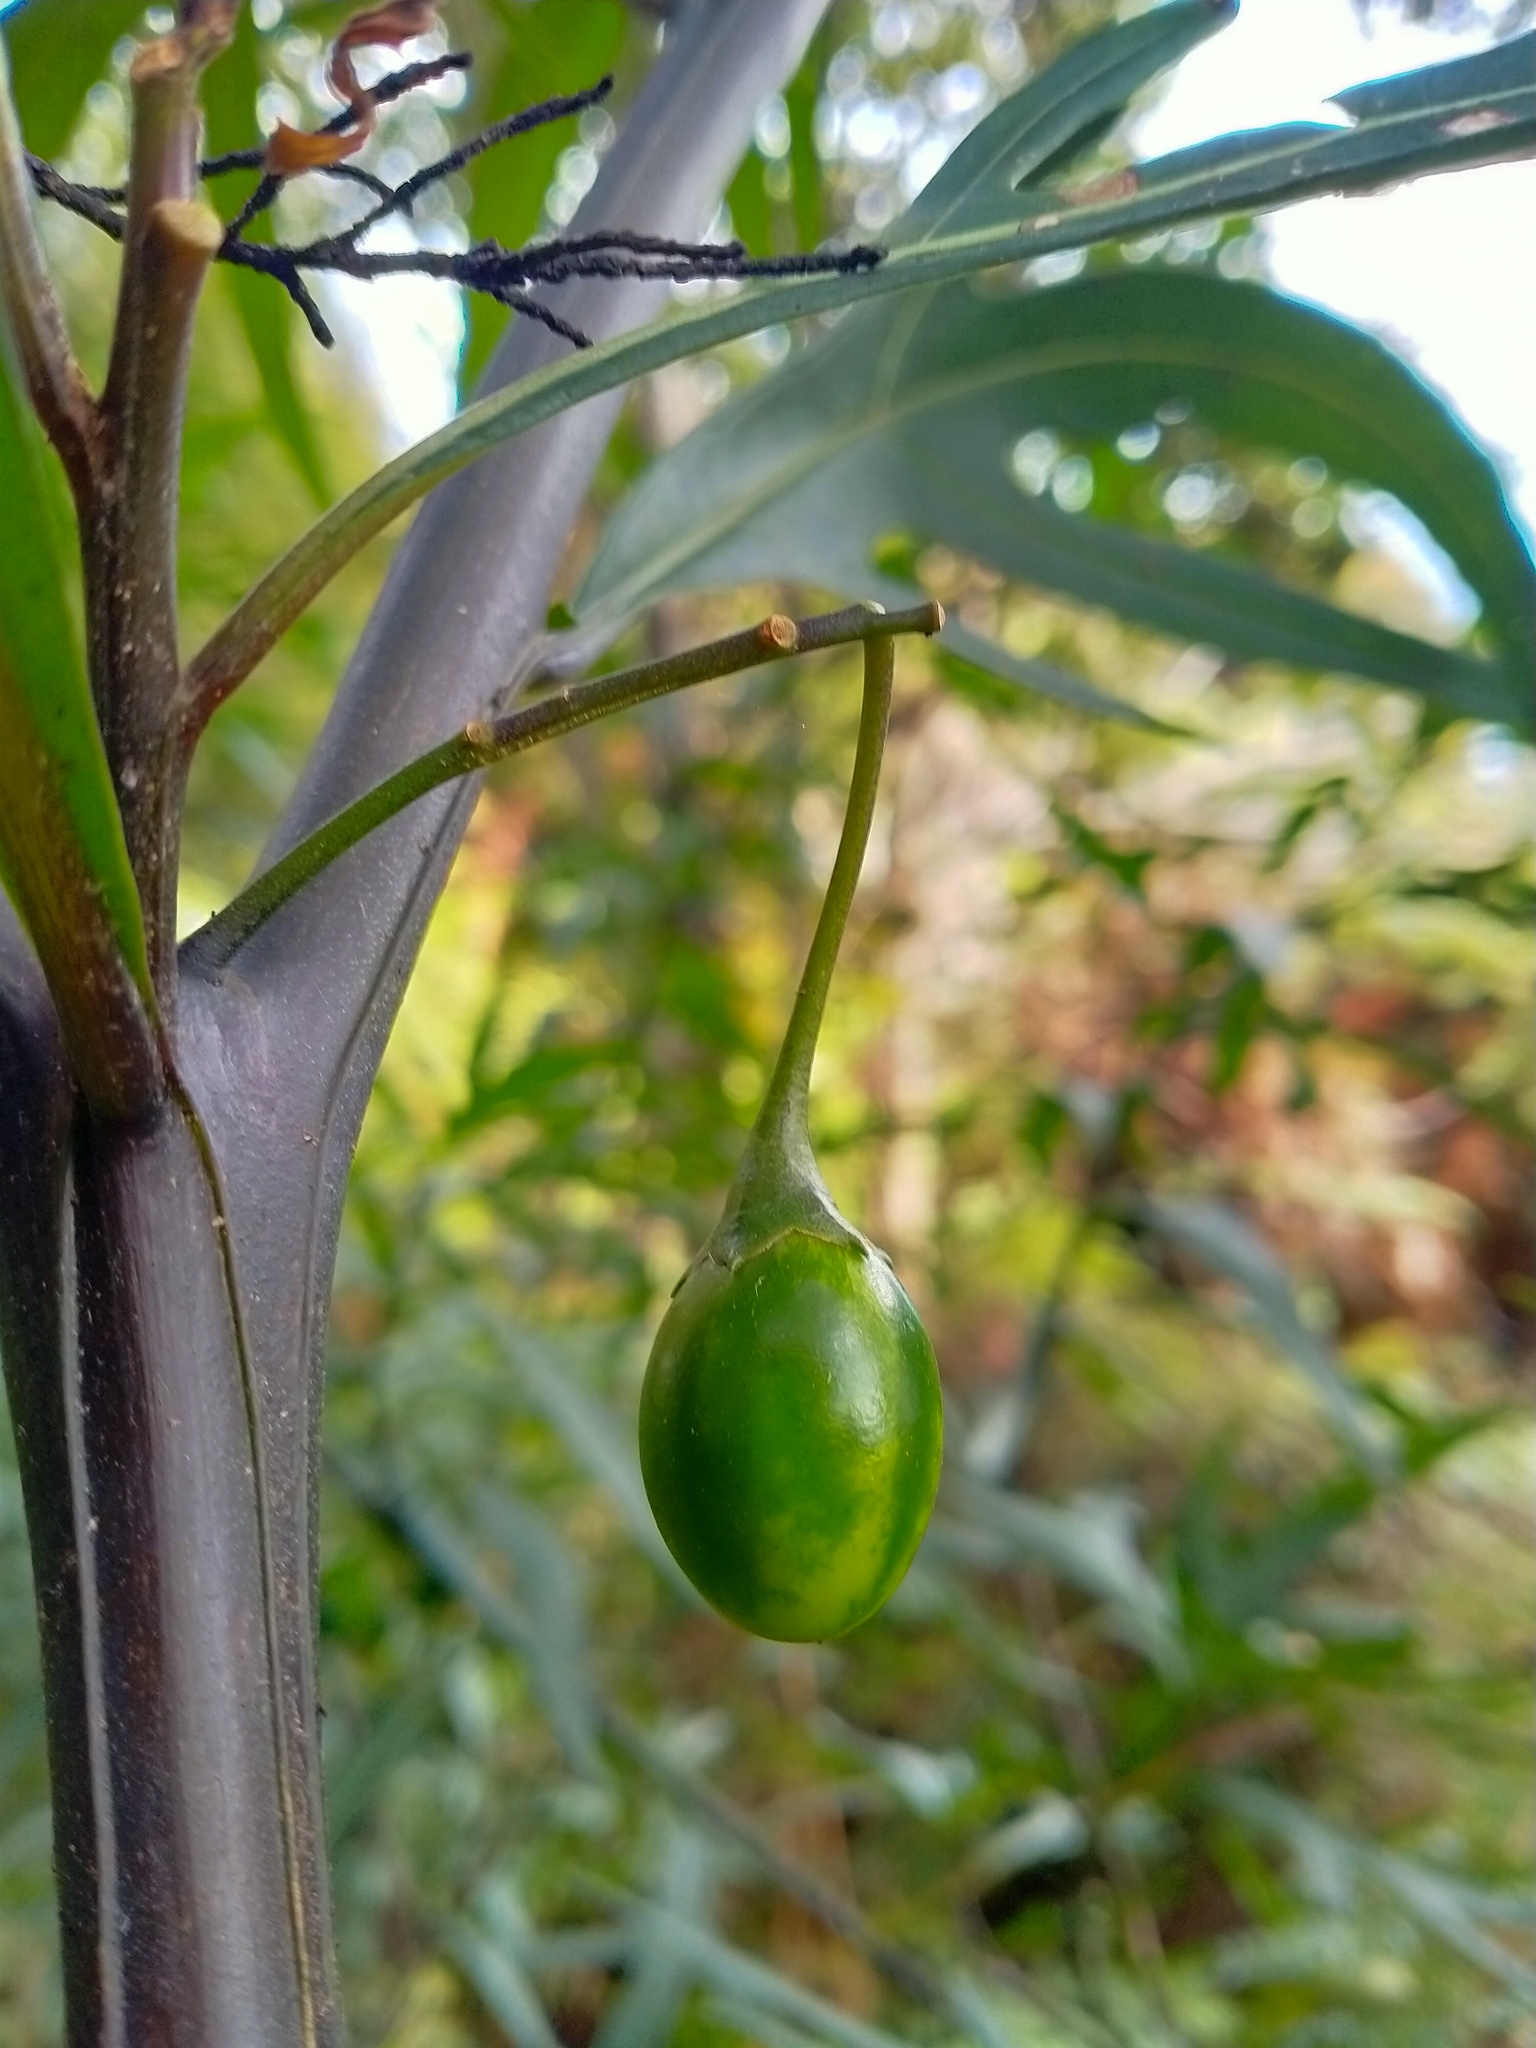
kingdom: Plantae
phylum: Tracheophyta
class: Magnoliopsida
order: Solanales
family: Solanaceae
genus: Solanum
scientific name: Solanum laciniatum
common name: Kangaroo-apple
